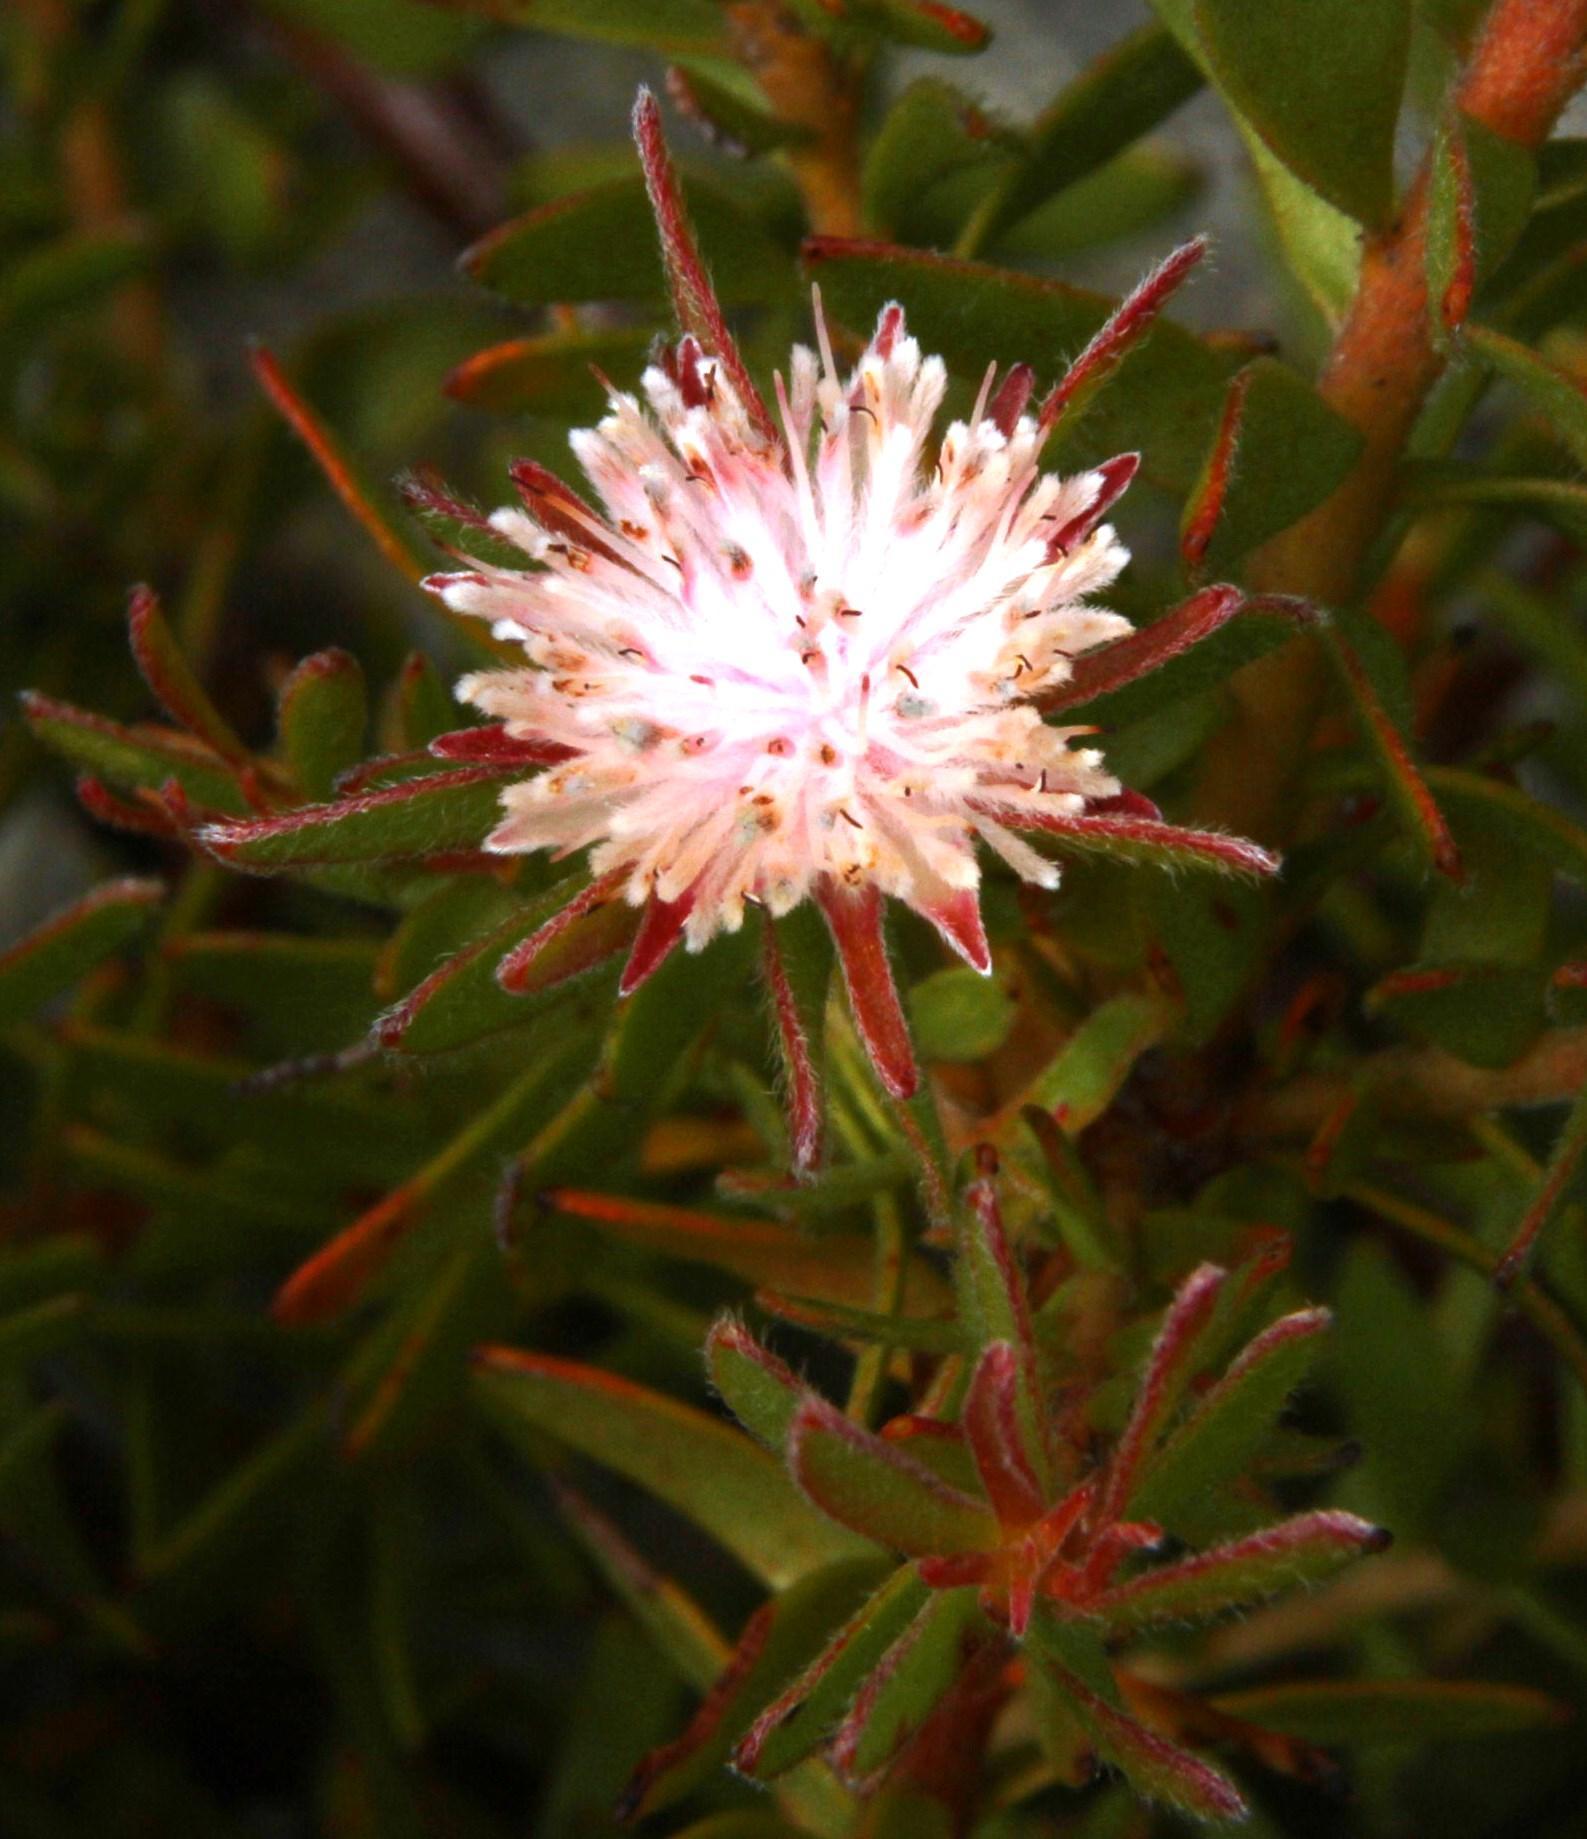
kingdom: Plantae
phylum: Tracheophyta
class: Magnoliopsida
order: Proteales
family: Proteaceae
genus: Diastella
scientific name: Diastella divaricata
